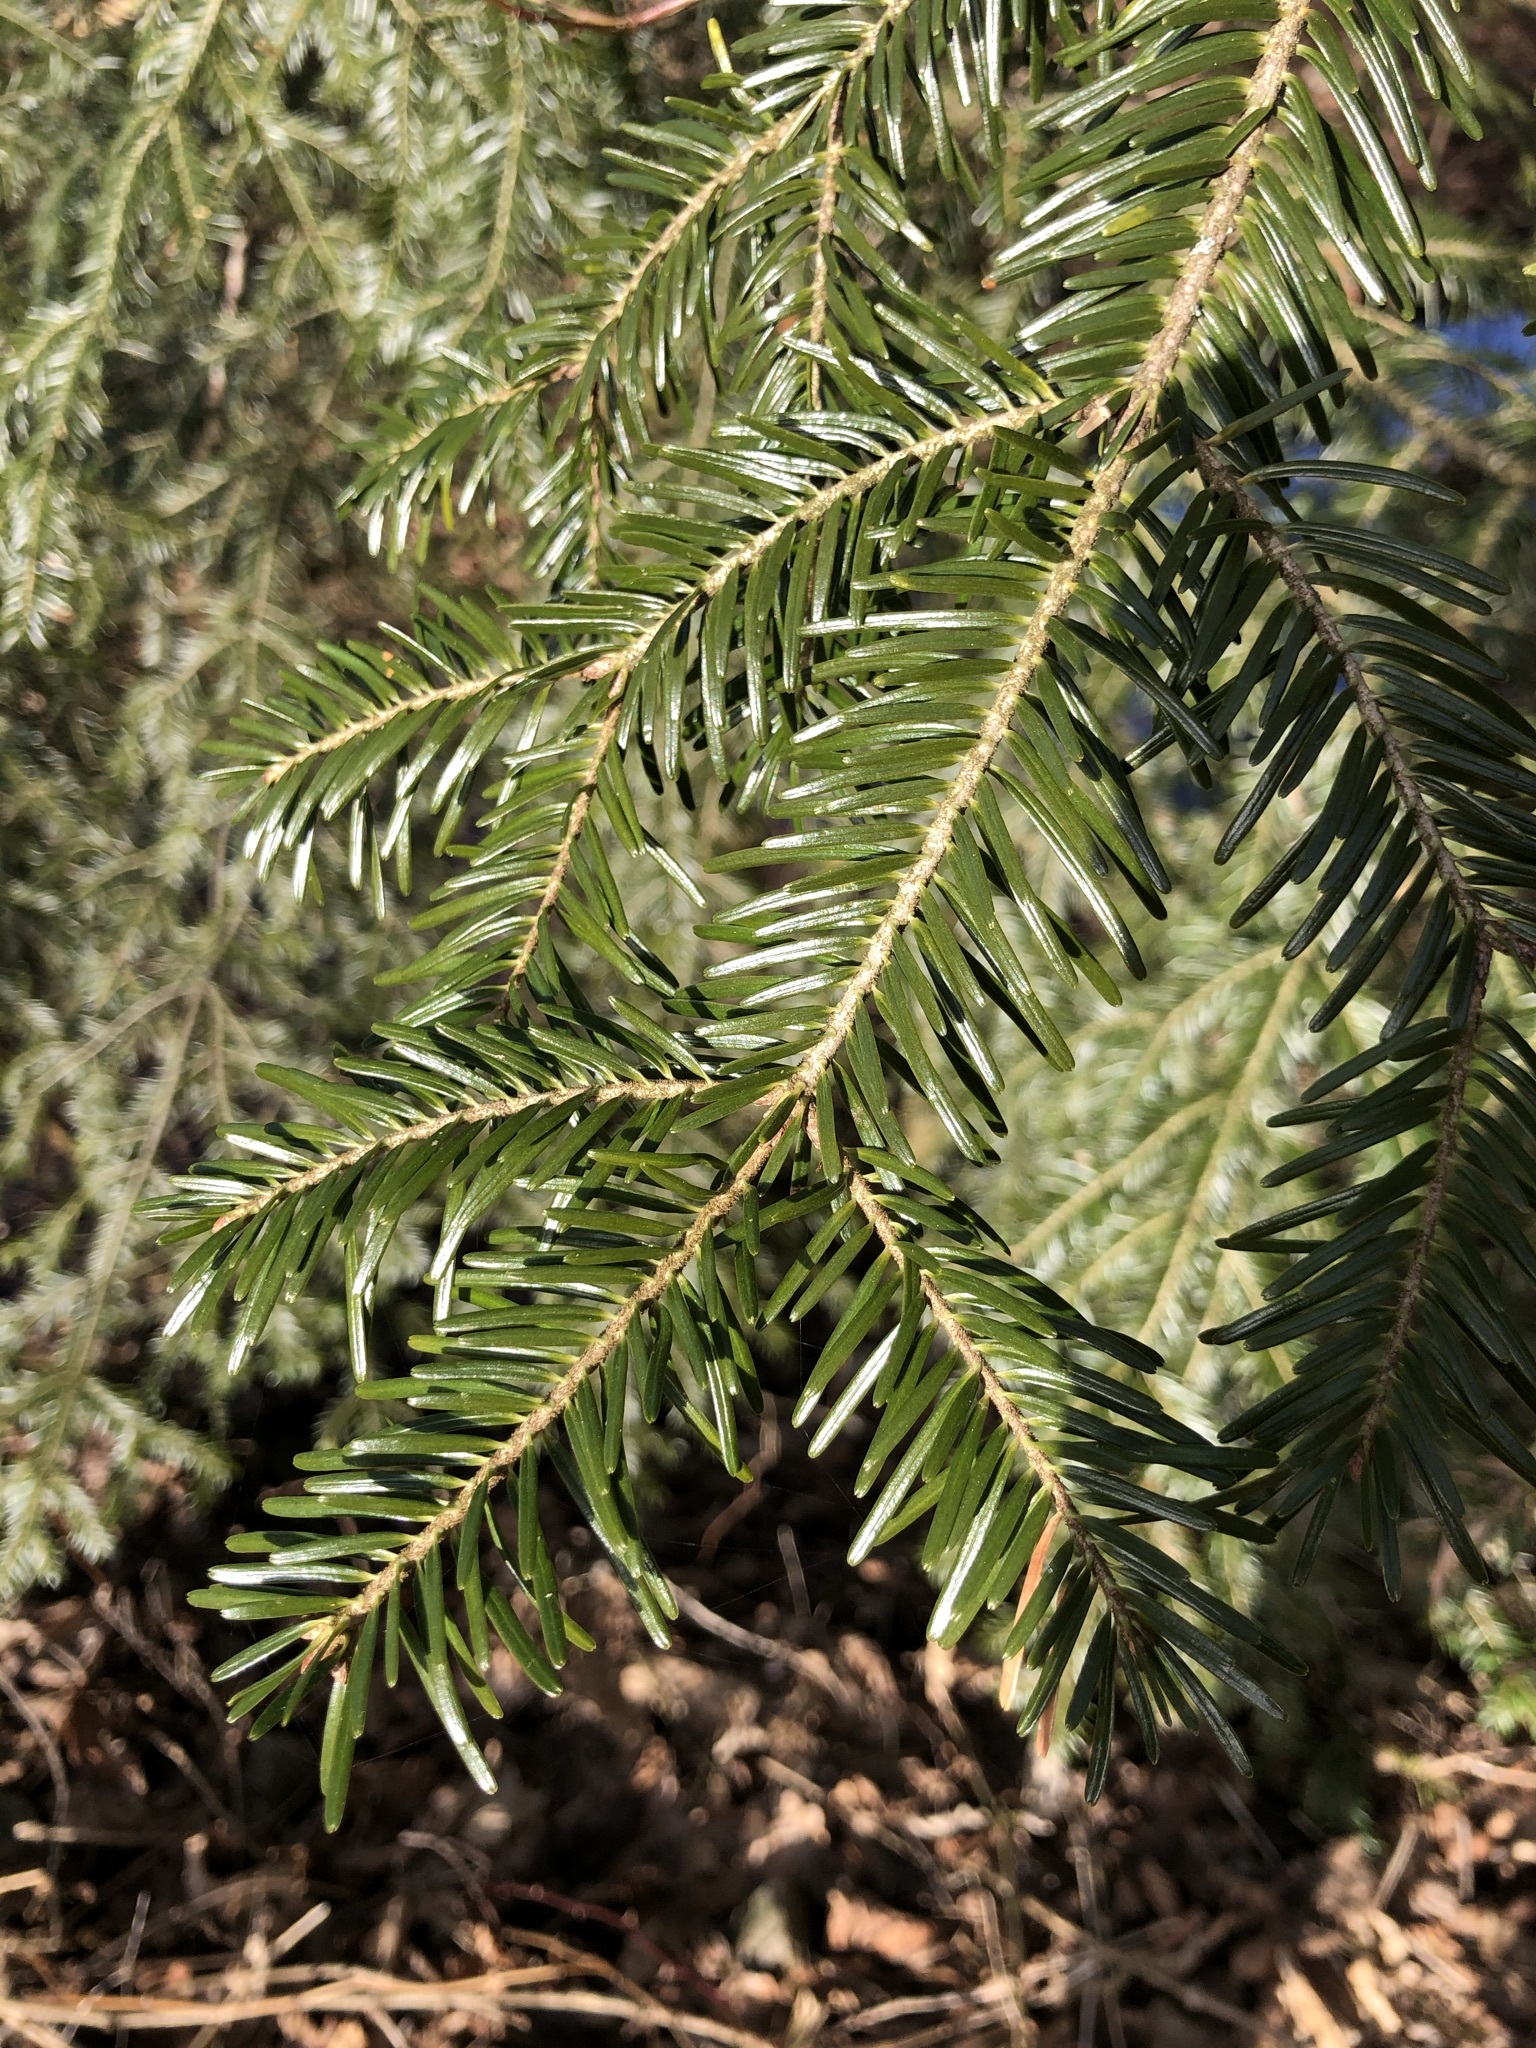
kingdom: Plantae
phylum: Tracheophyta
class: Pinopsida
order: Pinales
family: Pinaceae
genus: Abies
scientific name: Abies alba
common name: Silver fir
